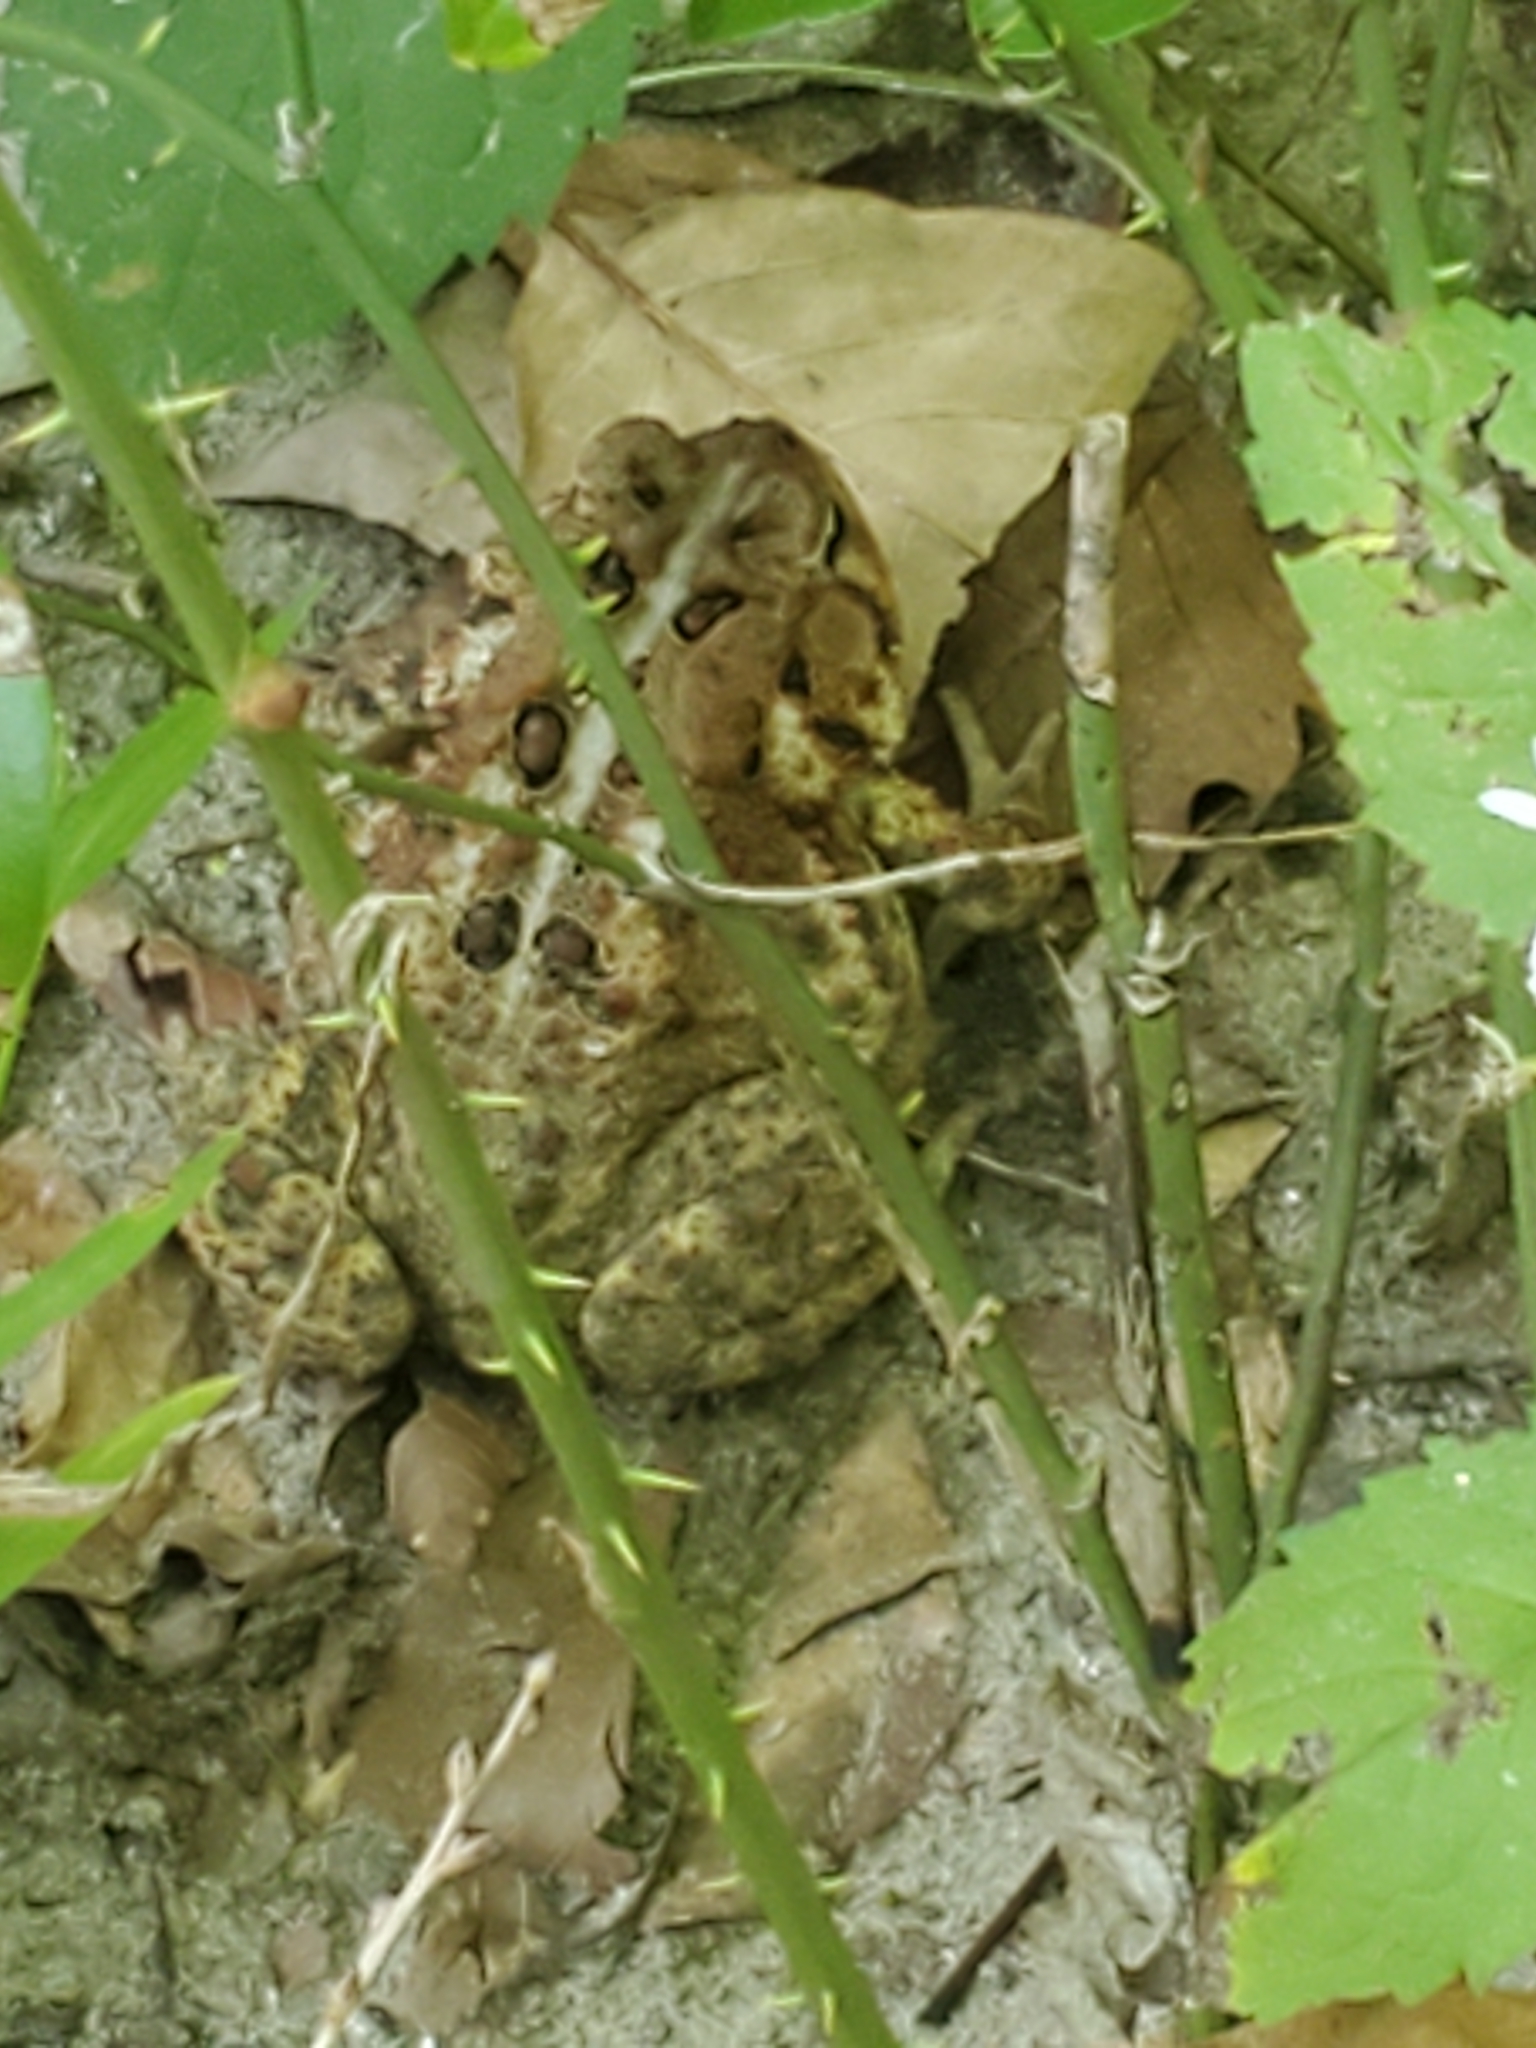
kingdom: Animalia
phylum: Chordata
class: Amphibia
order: Anura
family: Bufonidae
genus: Anaxyrus
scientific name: Anaxyrus americanus
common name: American toad
